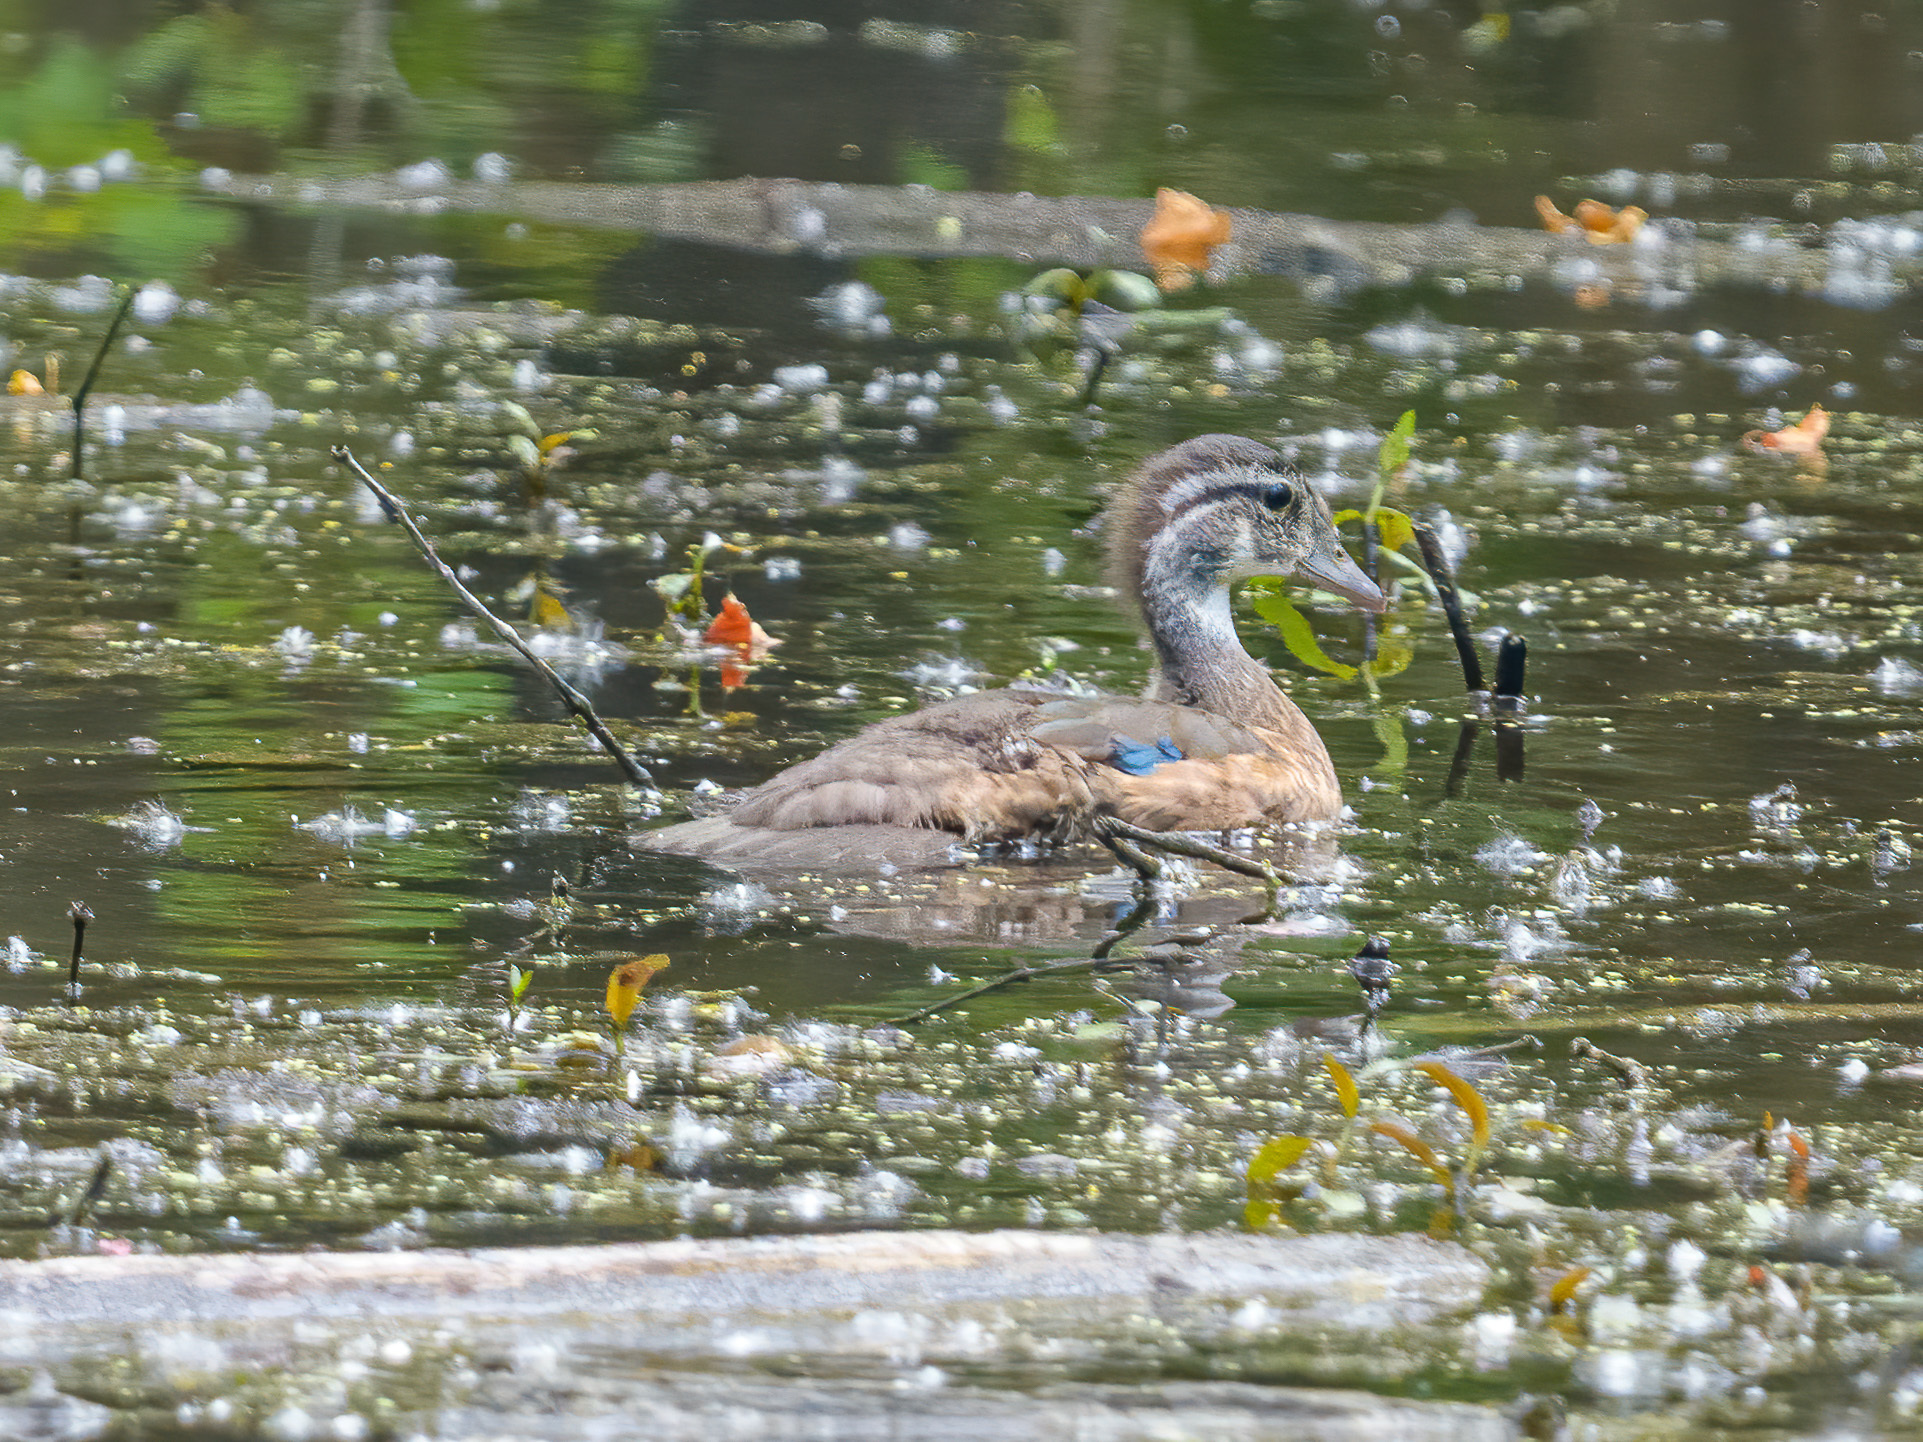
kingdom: Animalia
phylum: Chordata
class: Aves
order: Anseriformes
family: Anatidae
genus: Aix
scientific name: Aix sponsa
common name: Wood duck
